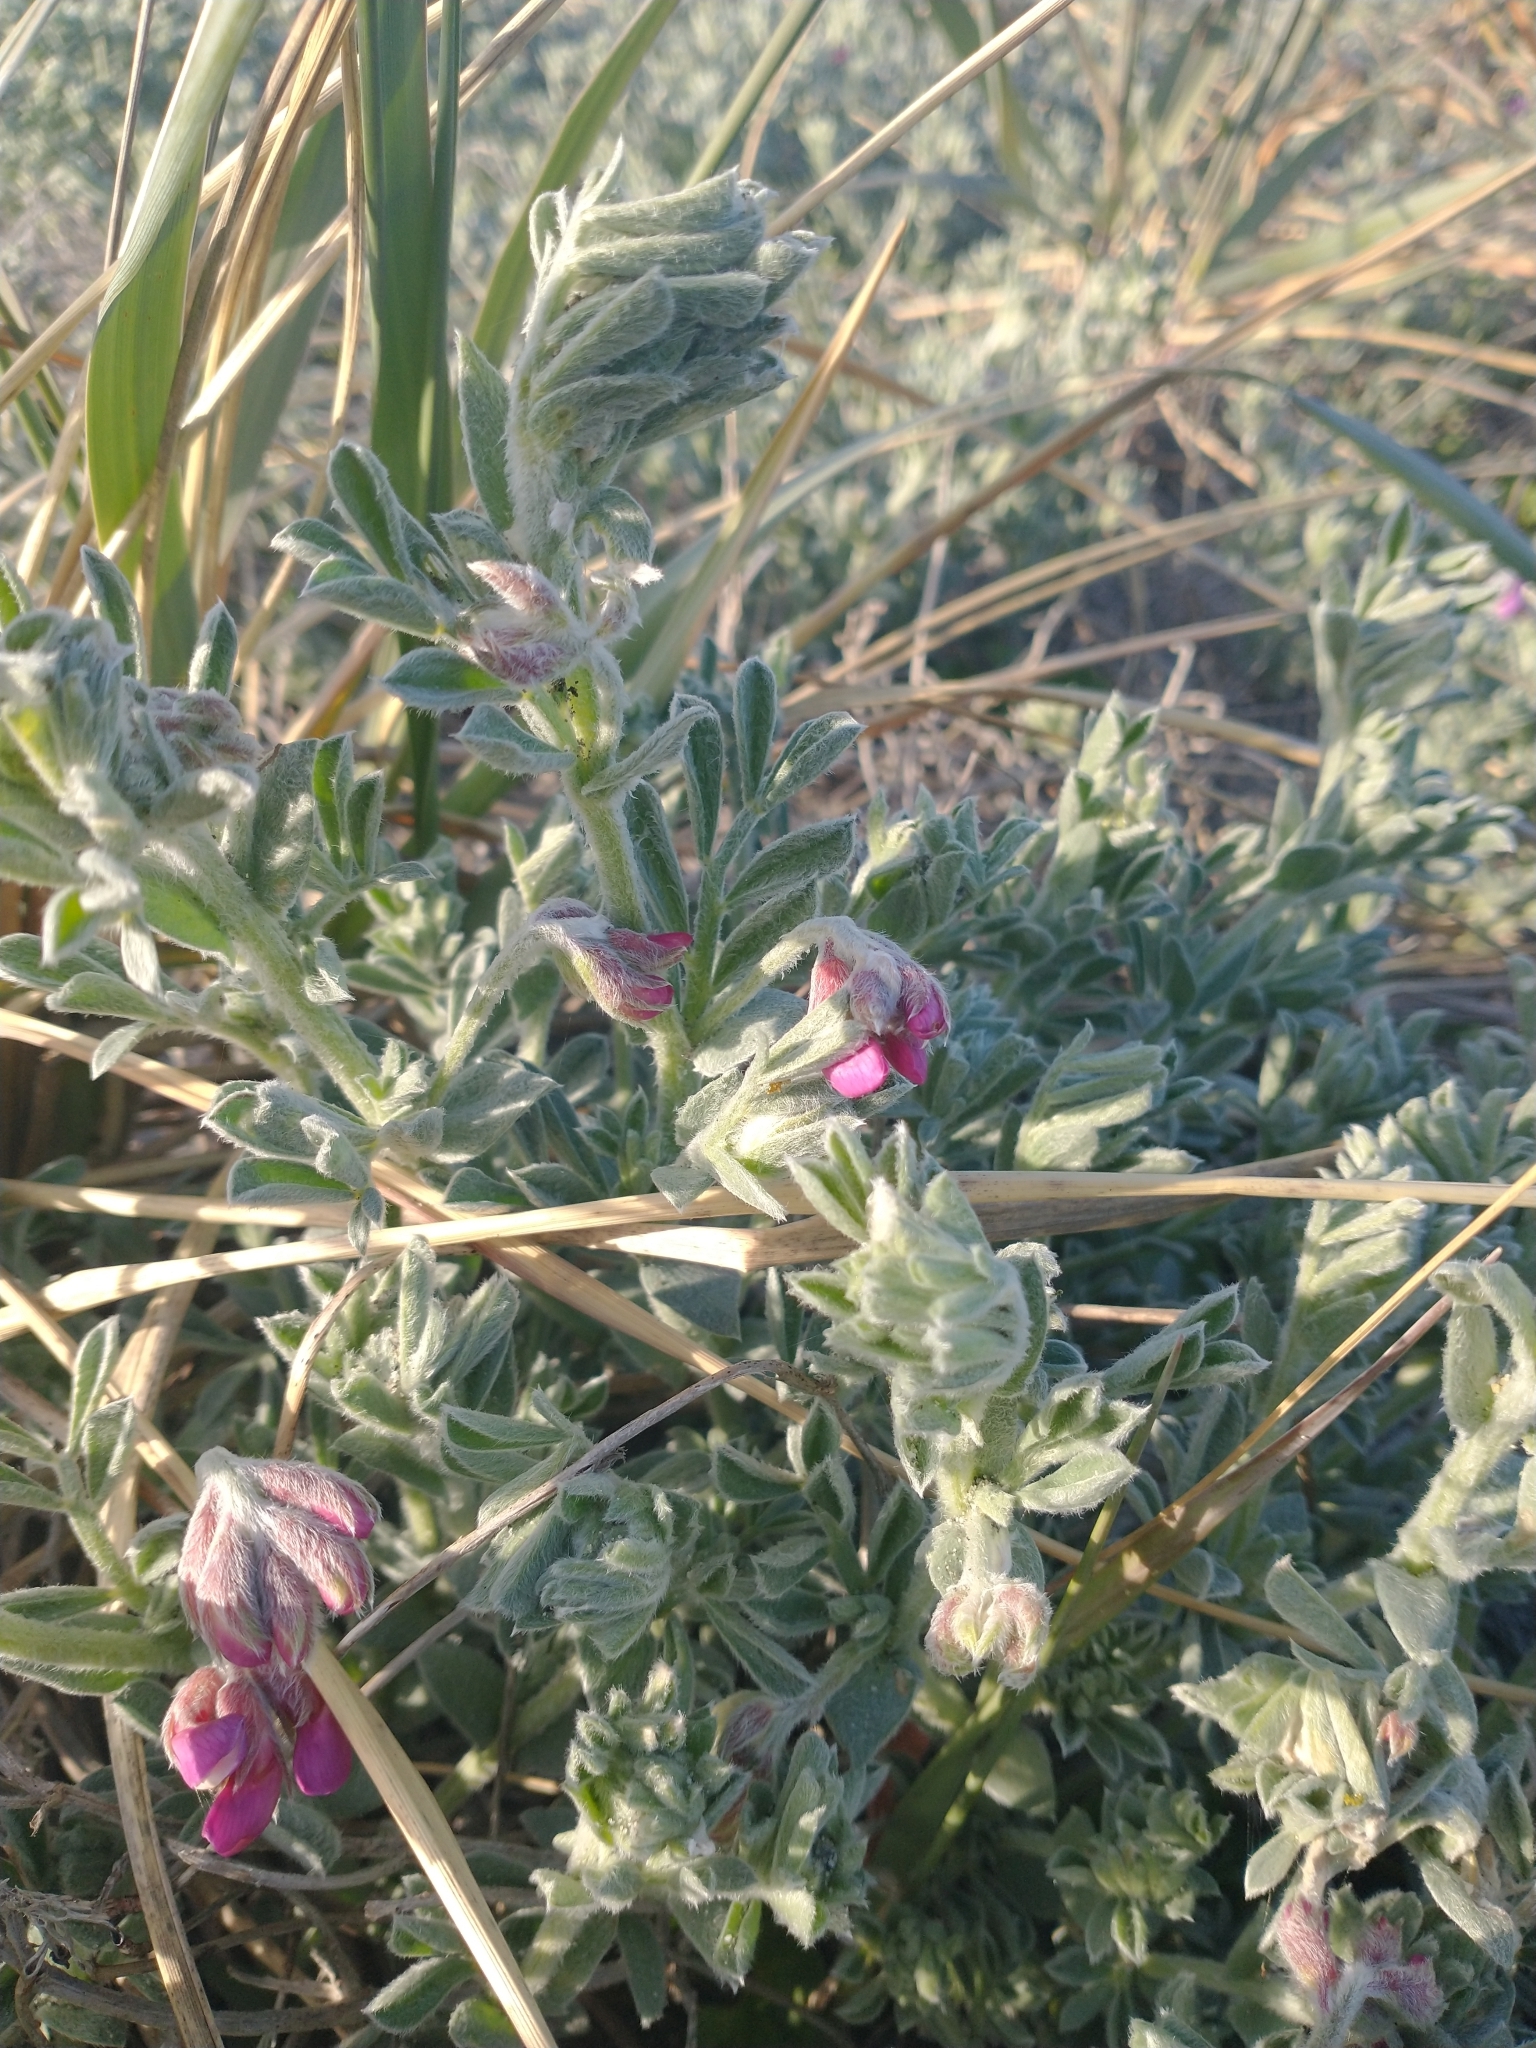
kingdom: Plantae
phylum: Tracheophyta
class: Magnoliopsida
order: Fabales
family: Fabaceae
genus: Lathyrus
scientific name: Lathyrus littoralis
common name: Dune sweet pea
